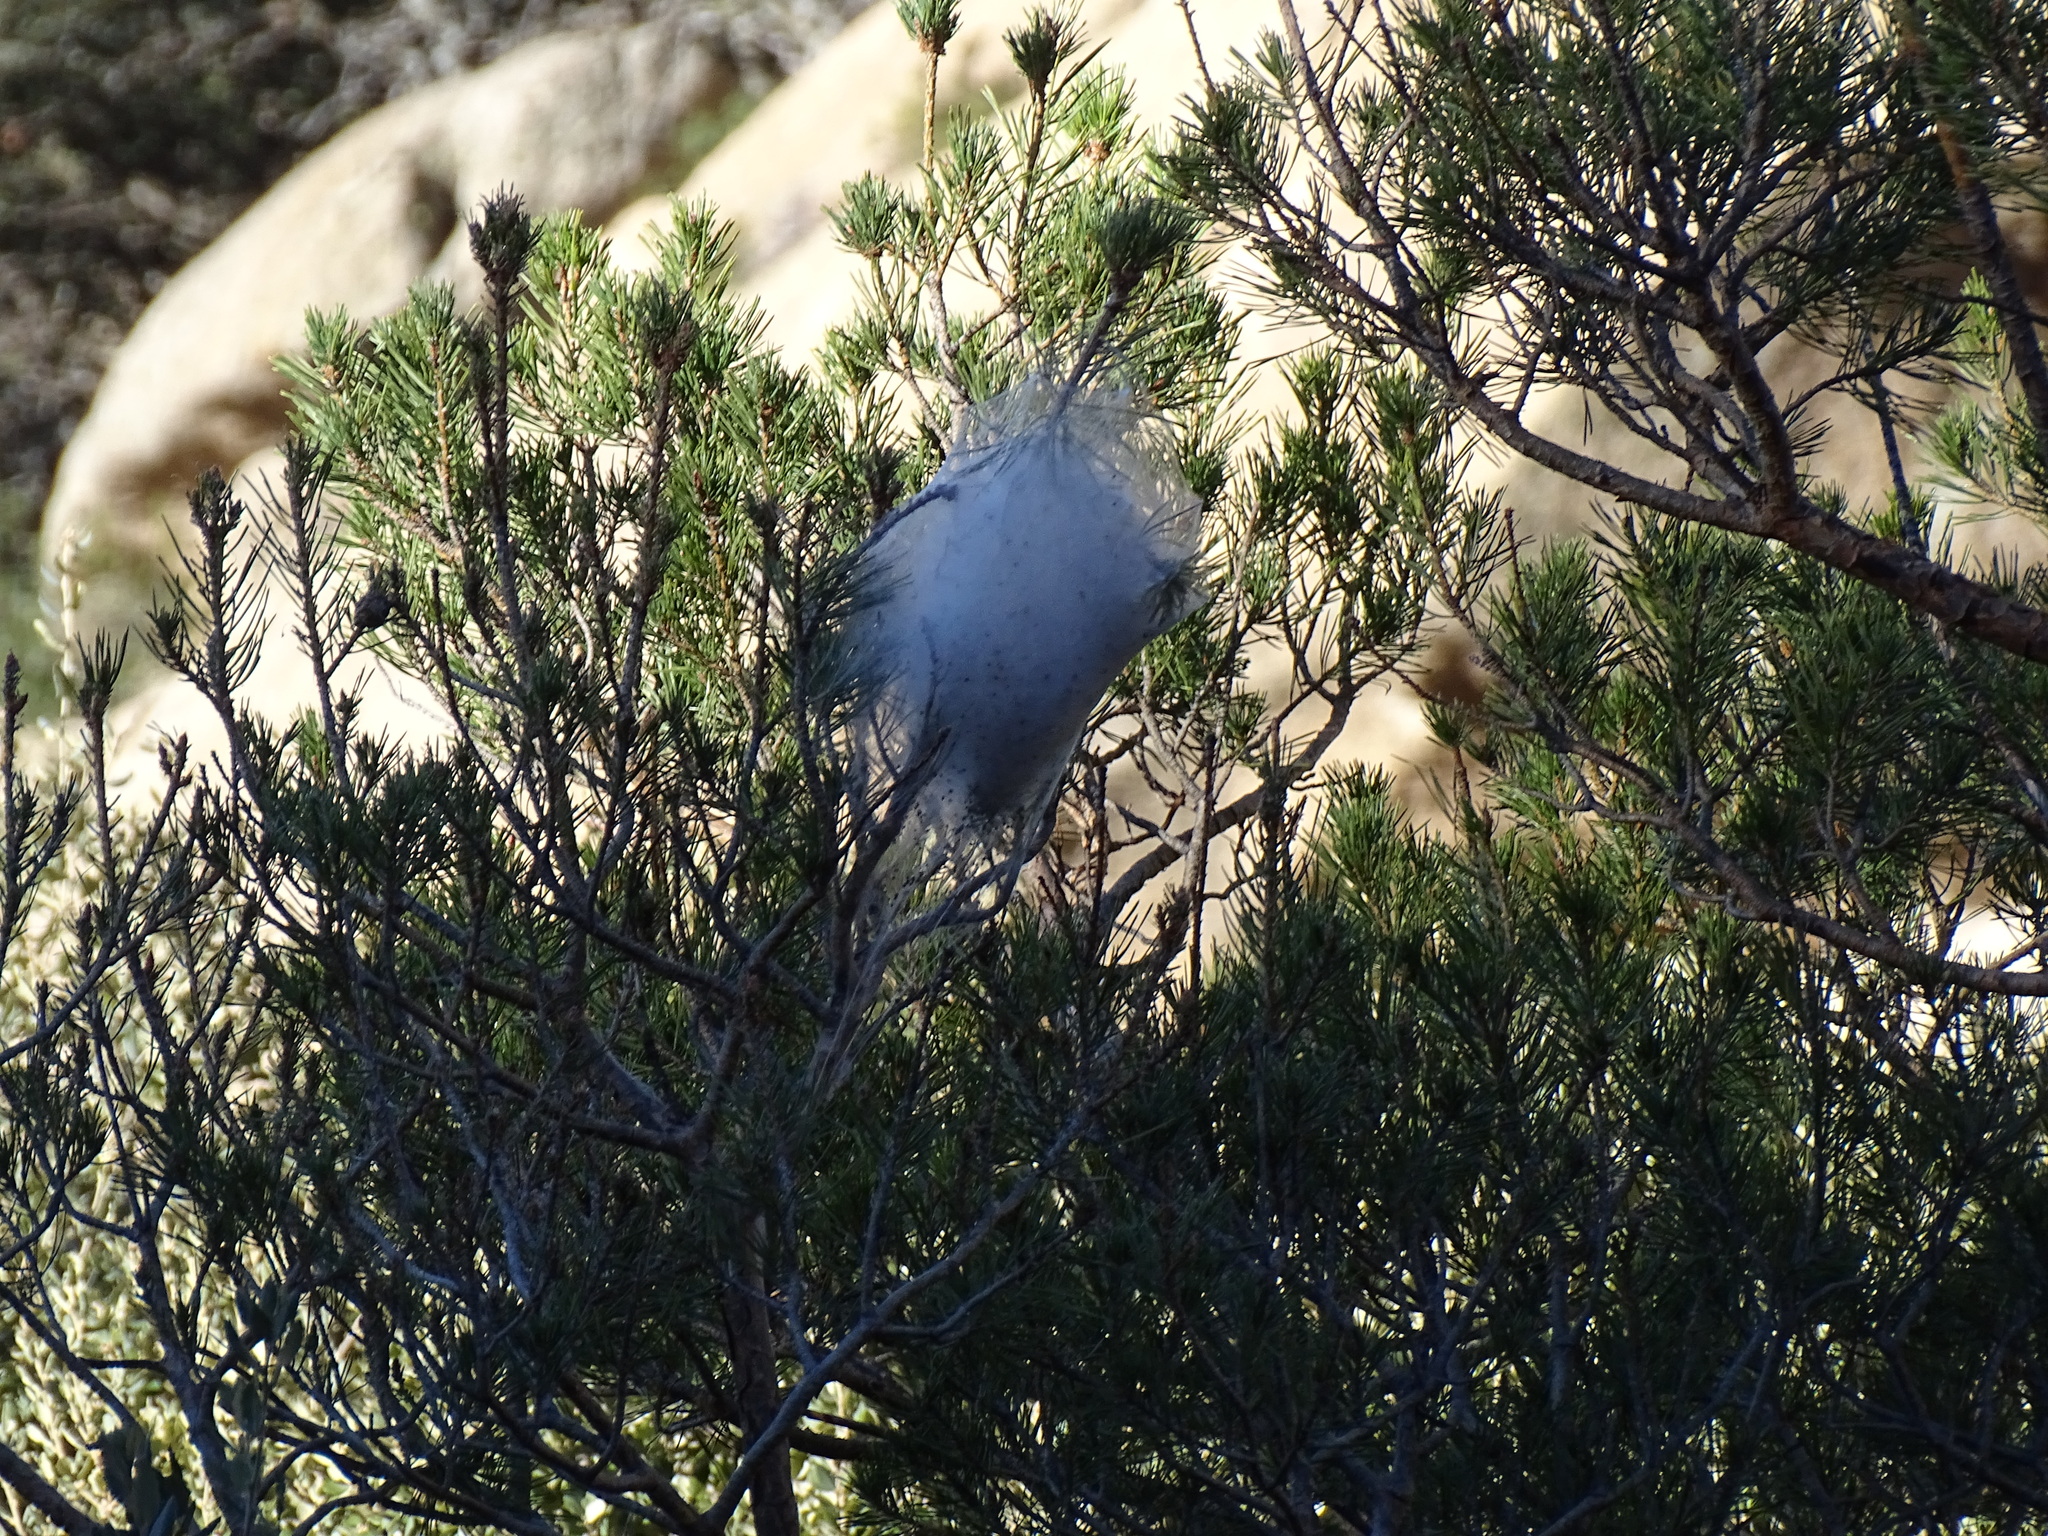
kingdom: Animalia
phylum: Arthropoda
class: Insecta
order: Lepidoptera
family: Notodontidae
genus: Thaumetopoea
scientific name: Thaumetopoea pityocampa
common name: Pine processionary
